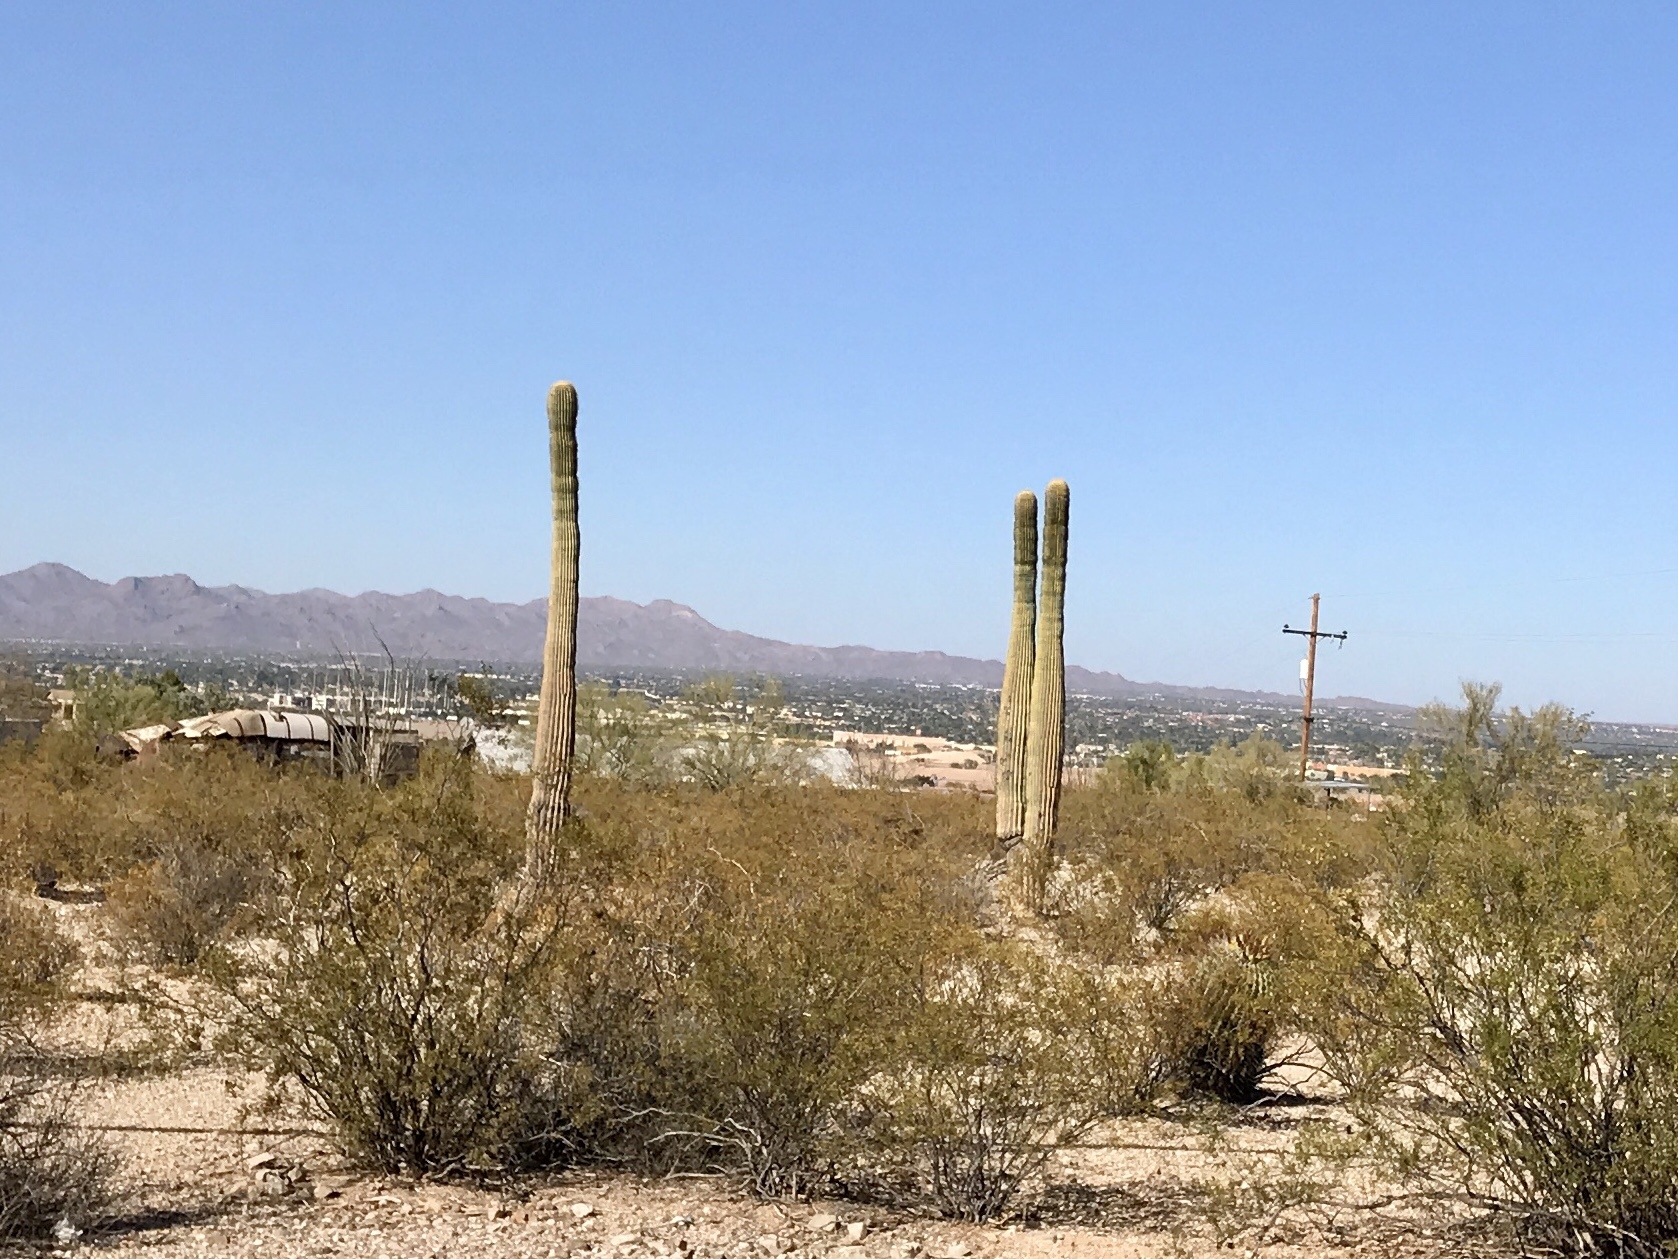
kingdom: Plantae
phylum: Tracheophyta
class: Magnoliopsida
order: Caryophyllales
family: Cactaceae
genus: Carnegiea
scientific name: Carnegiea gigantea
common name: Saguaro
